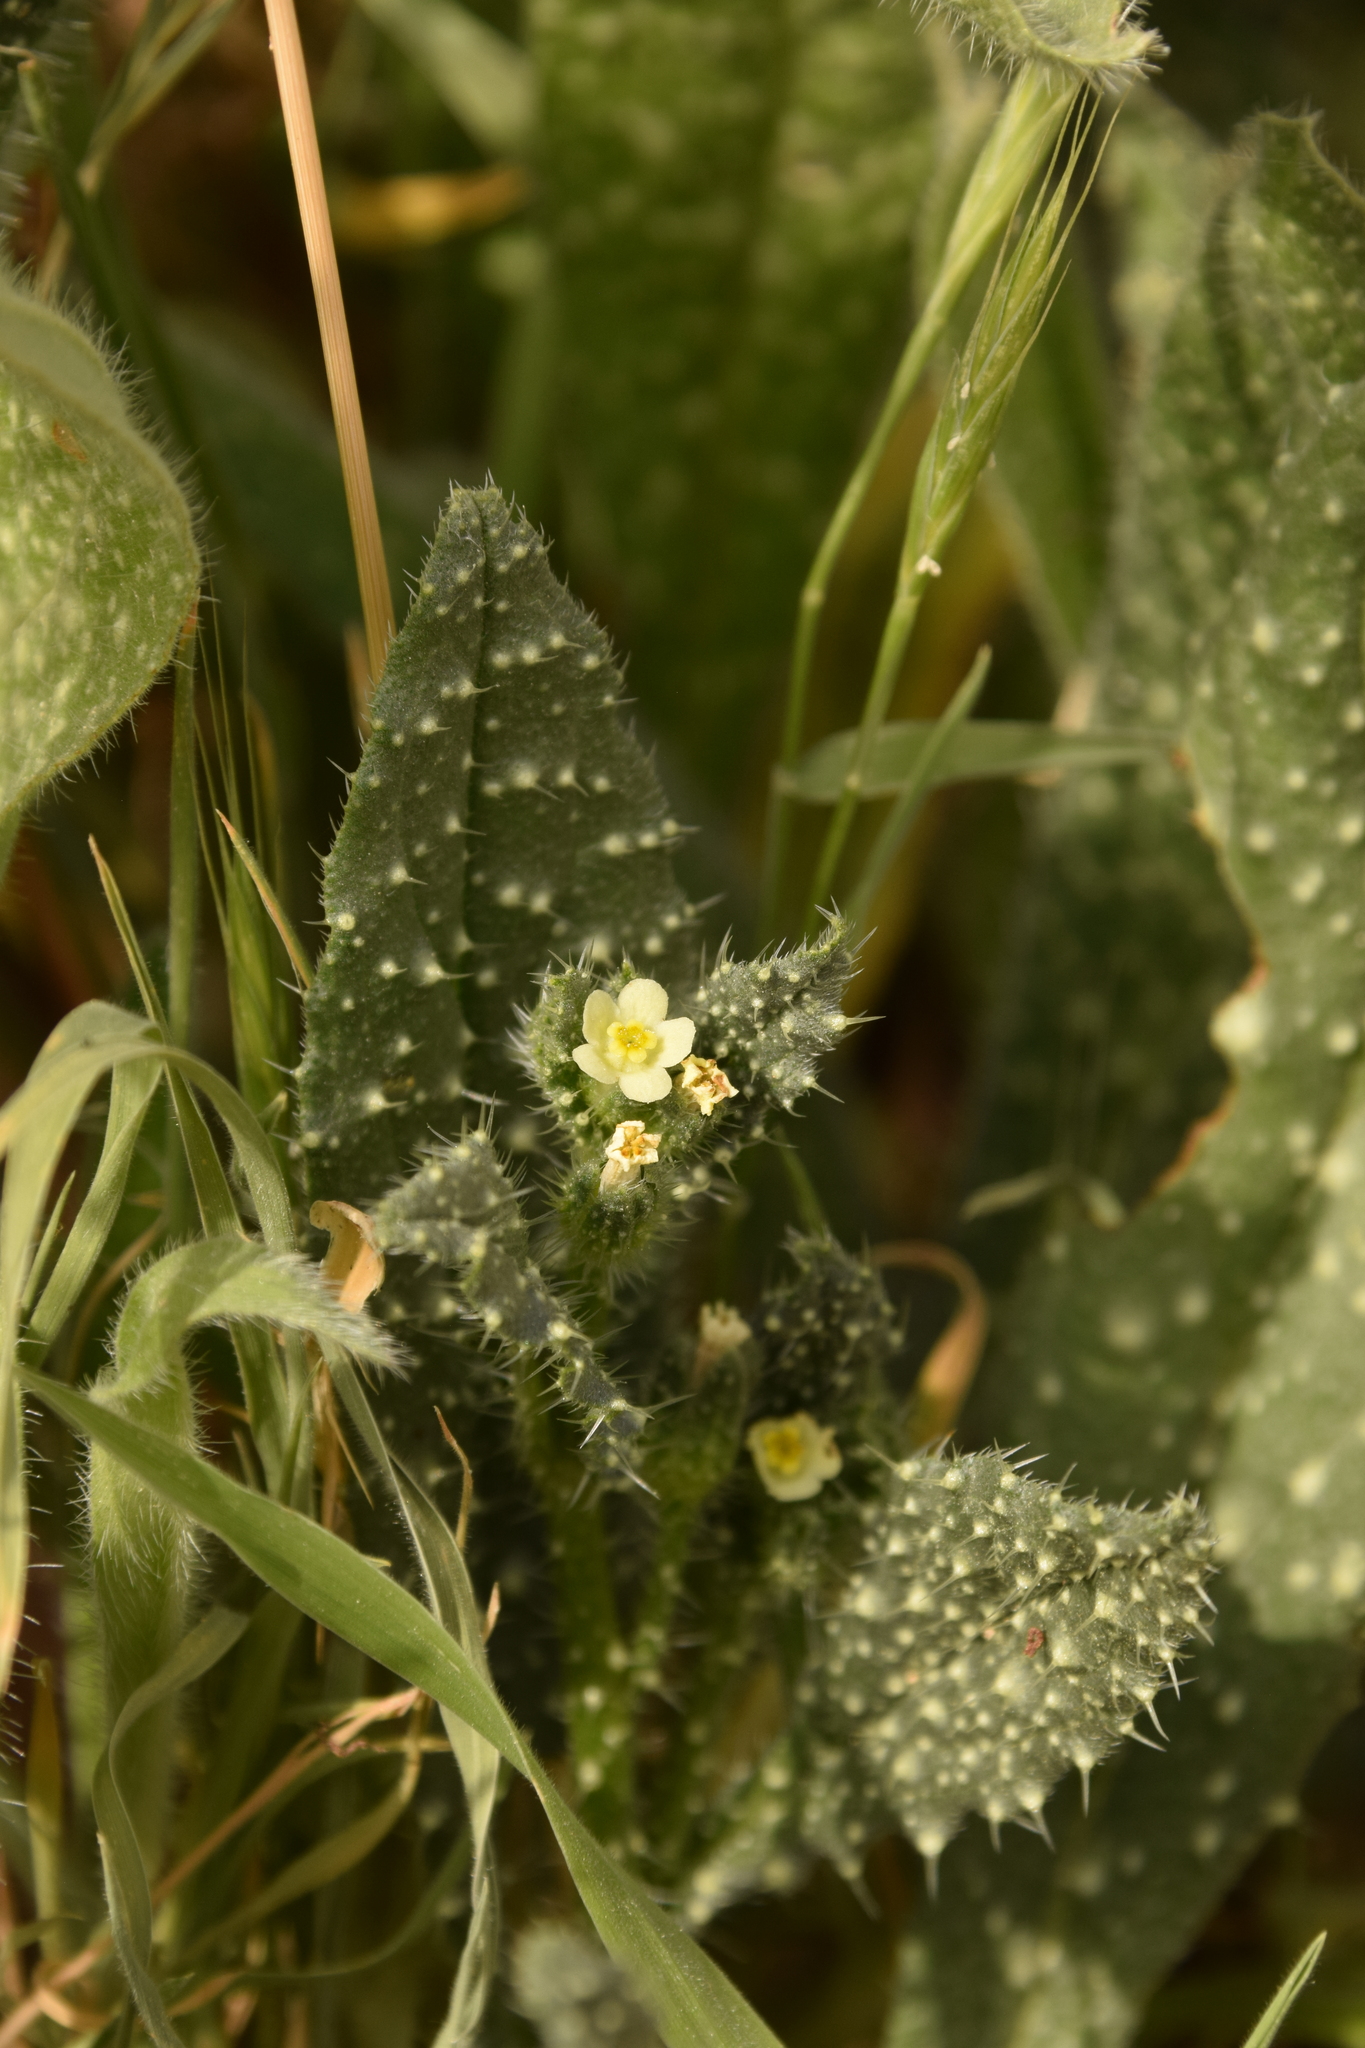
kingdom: Plantae
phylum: Tracheophyta
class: Magnoliopsida
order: Boraginales
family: Boraginaceae
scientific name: Boraginaceae
